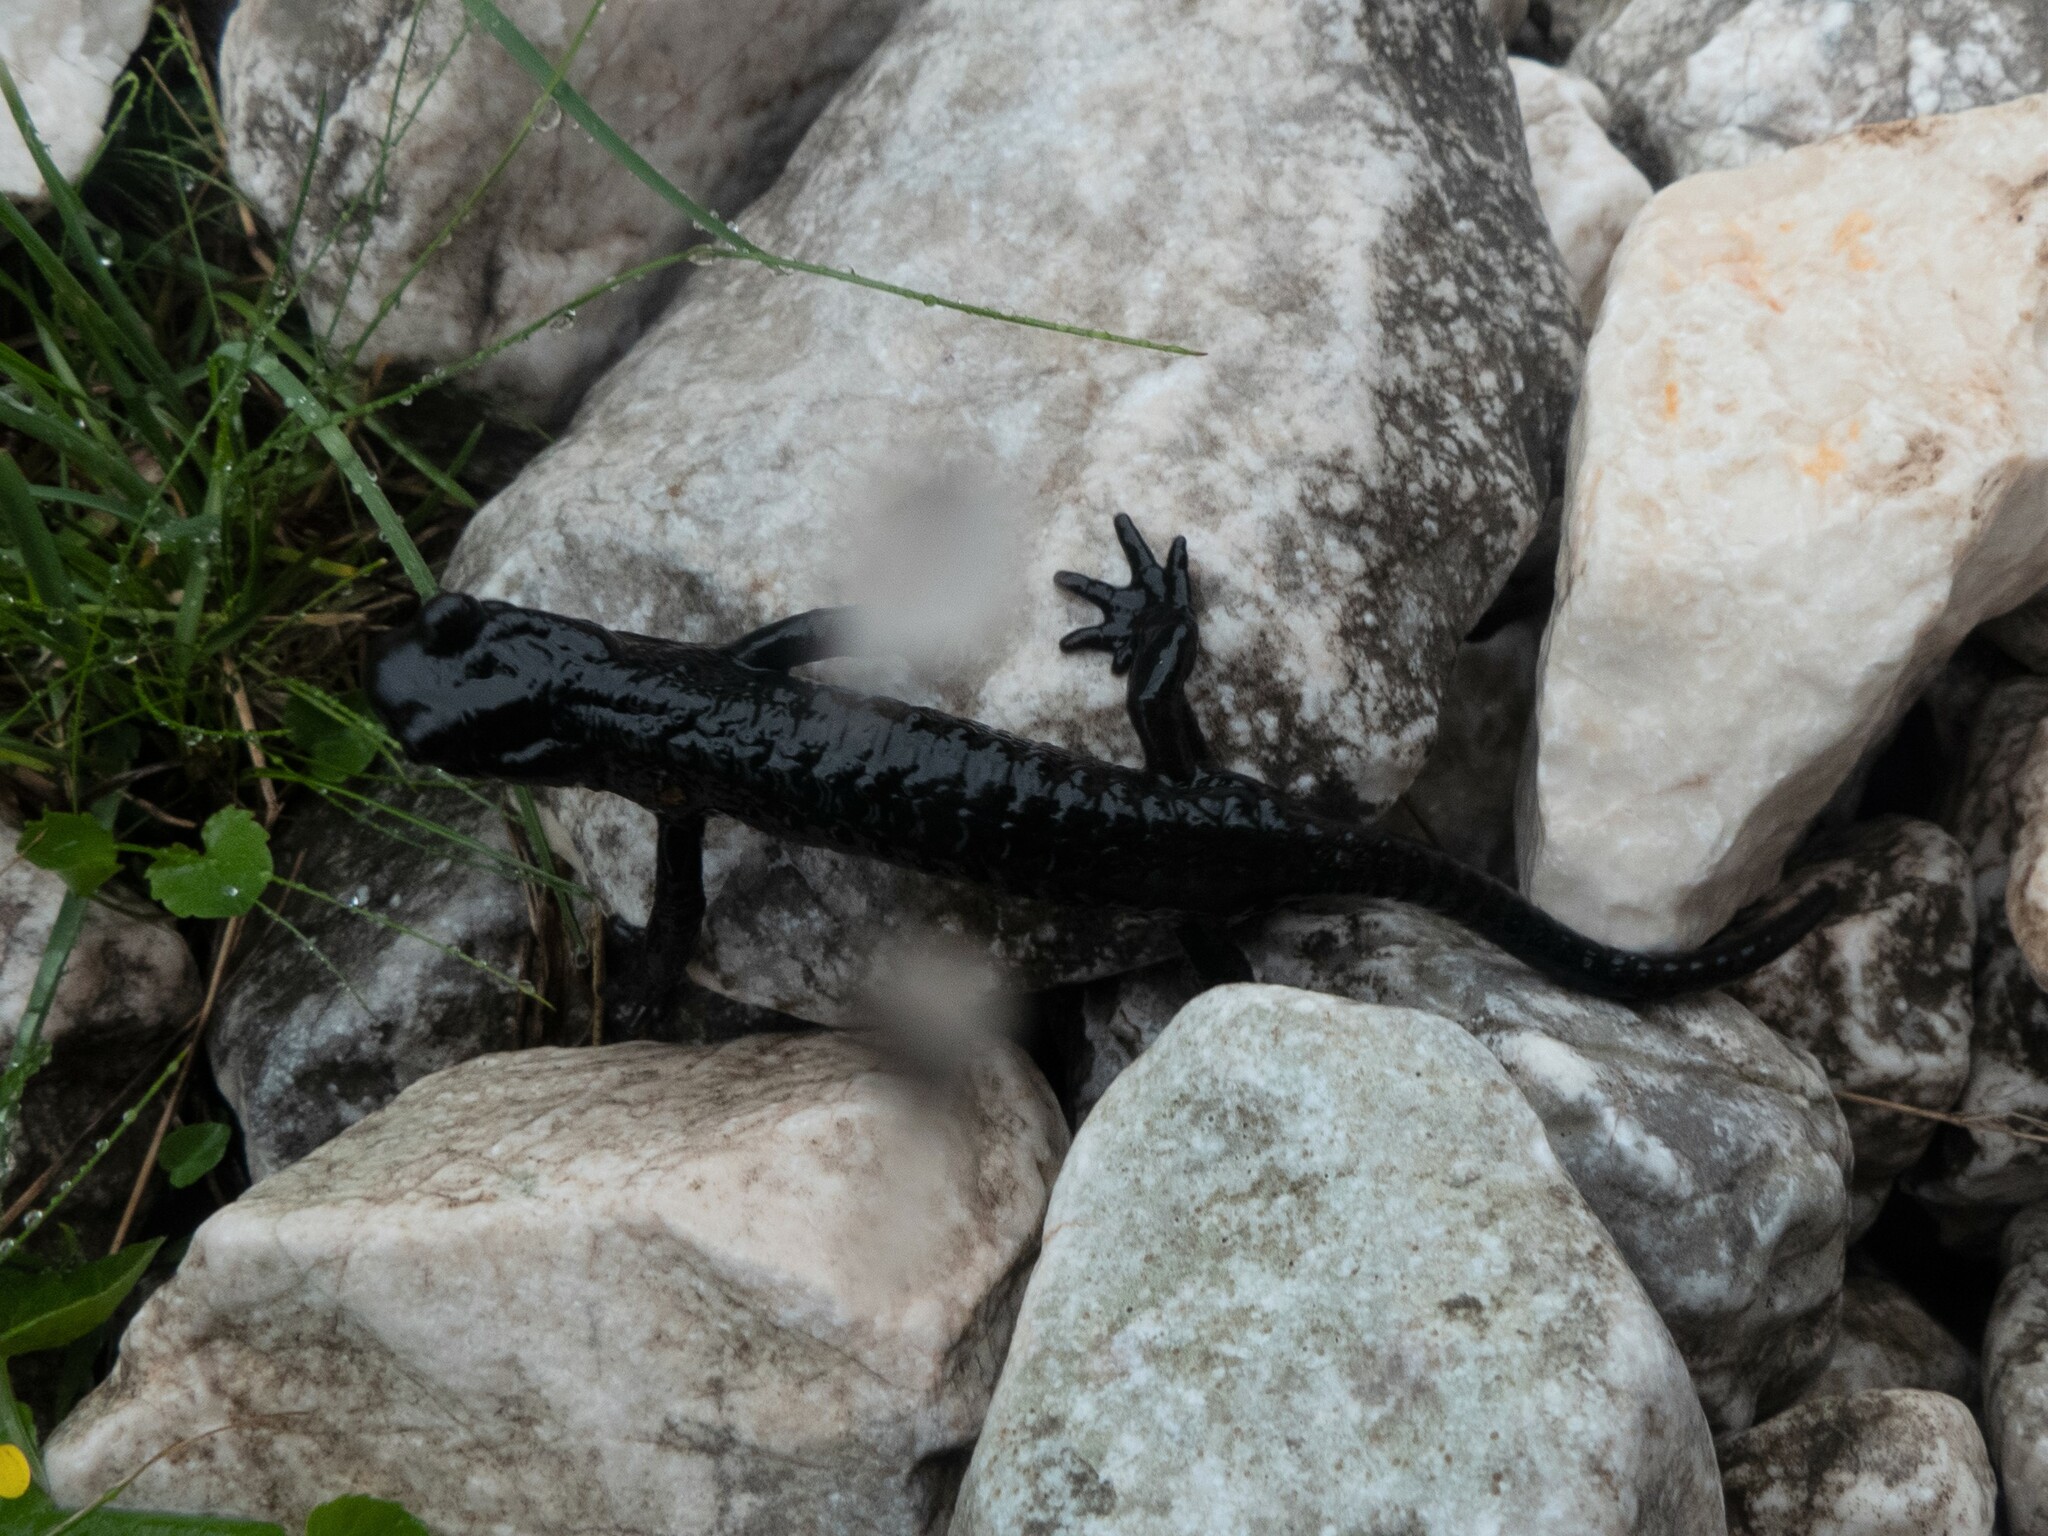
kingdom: Animalia
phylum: Chordata
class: Amphibia
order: Caudata
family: Salamandridae
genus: Salamandra
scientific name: Salamandra atra
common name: Alpine salamander
